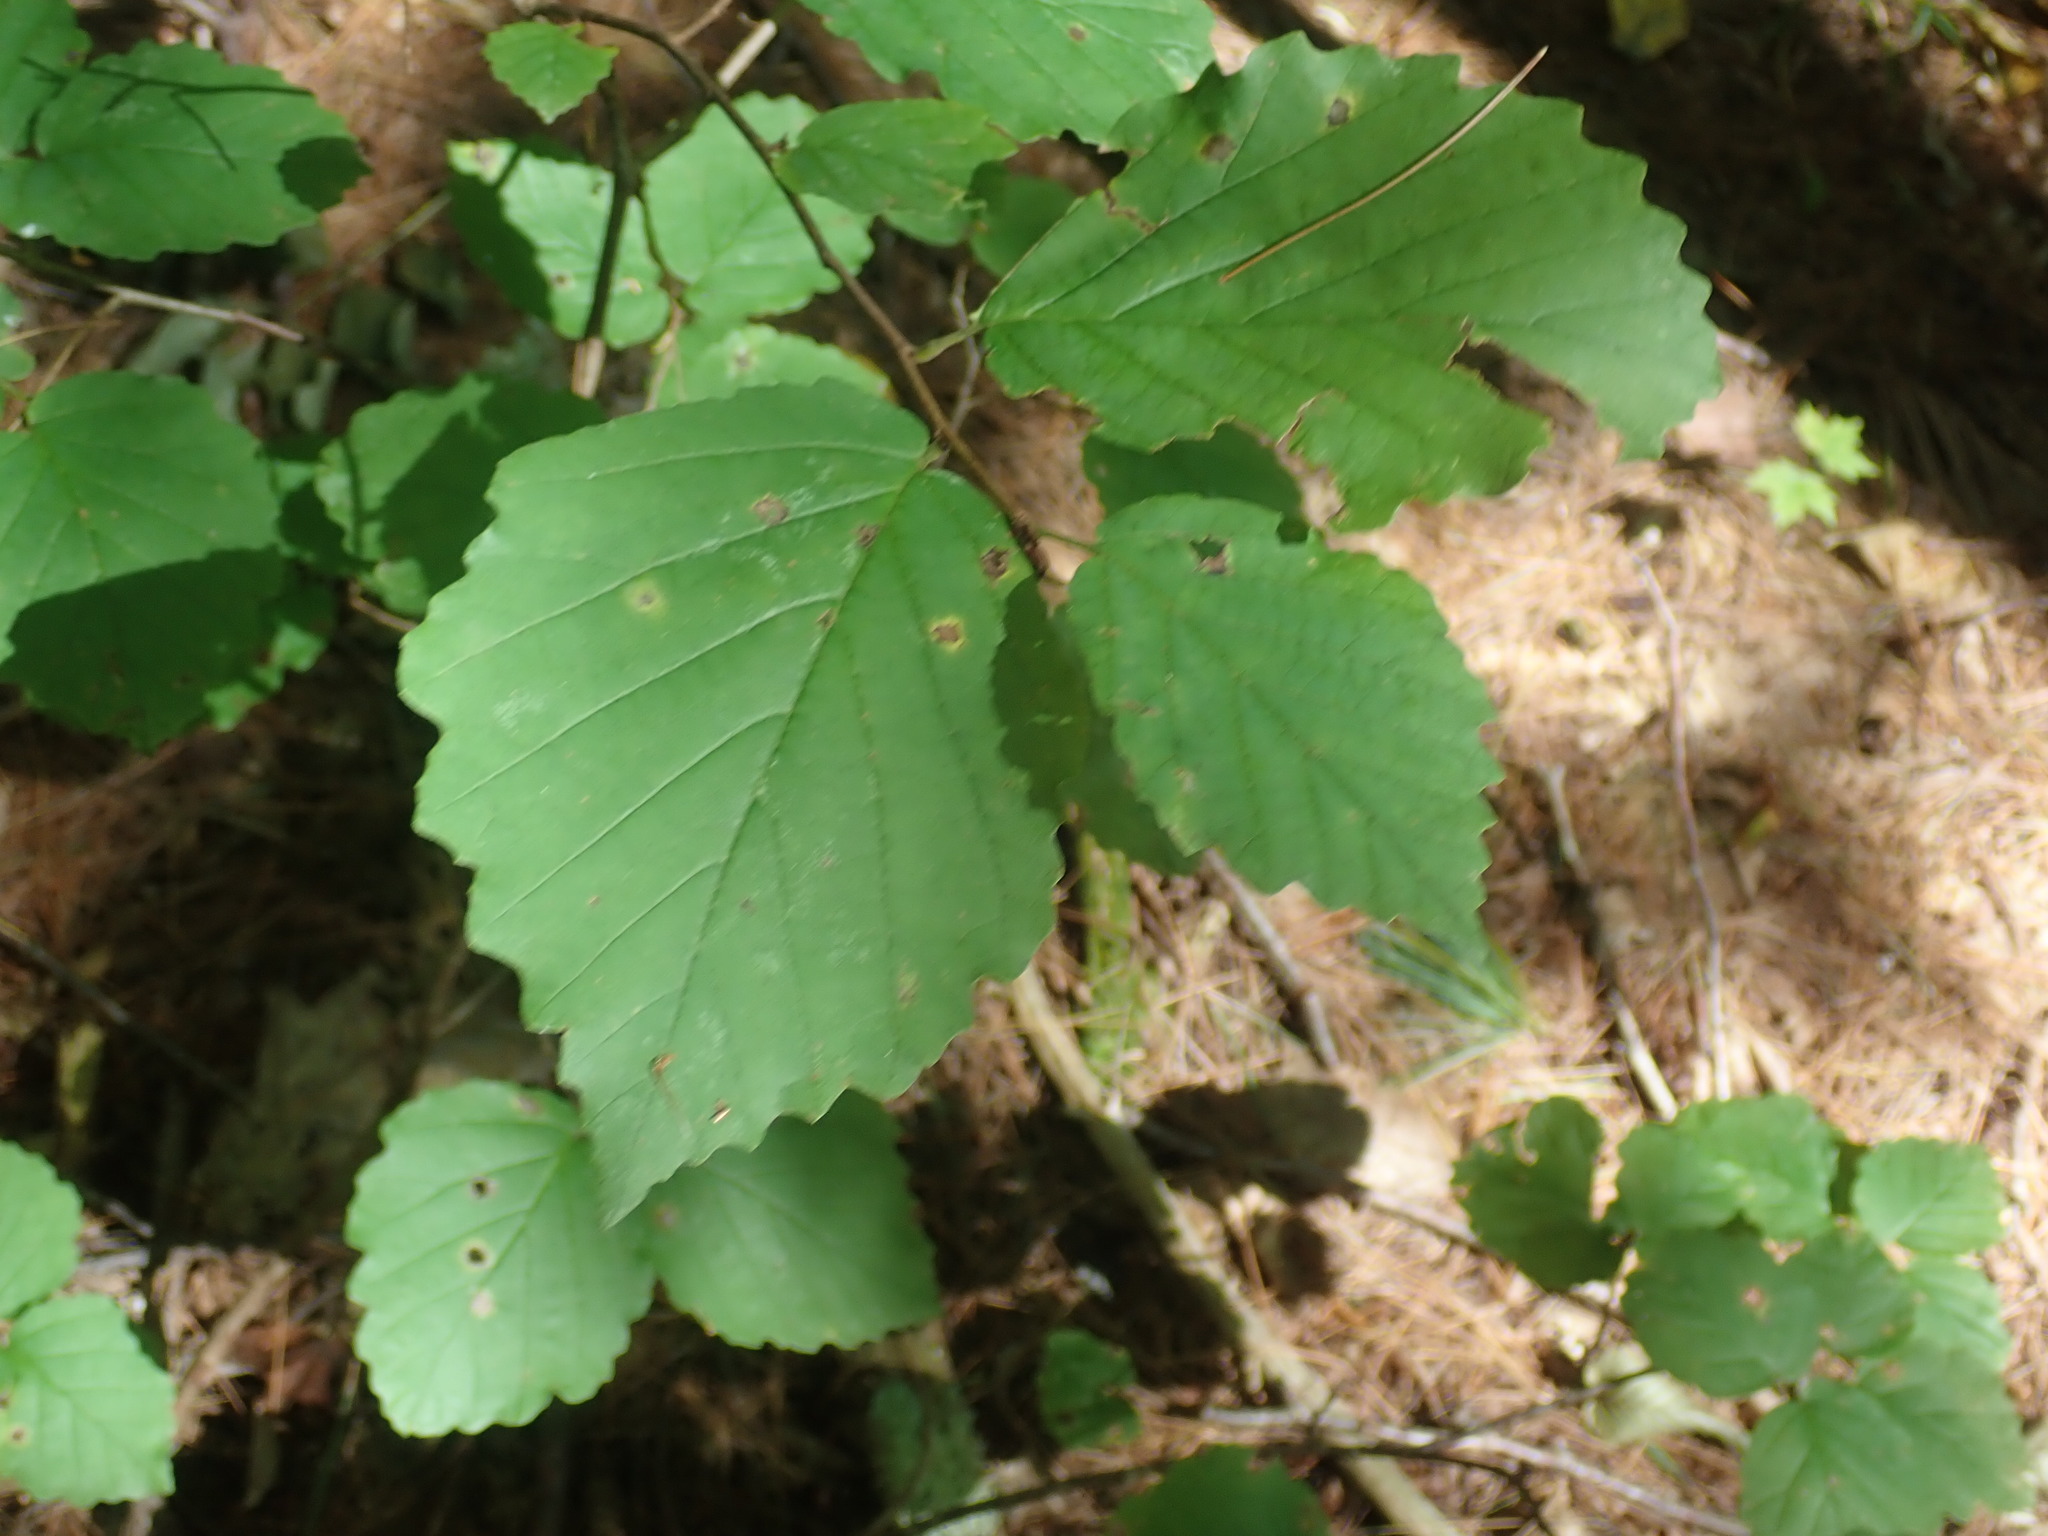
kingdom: Plantae
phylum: Tracheophyta
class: Magnoliopsida
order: Saxifragales
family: Hamamelidaceae
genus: Hamamelis
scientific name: Hamamelis virginiana
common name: Witch-hazel
